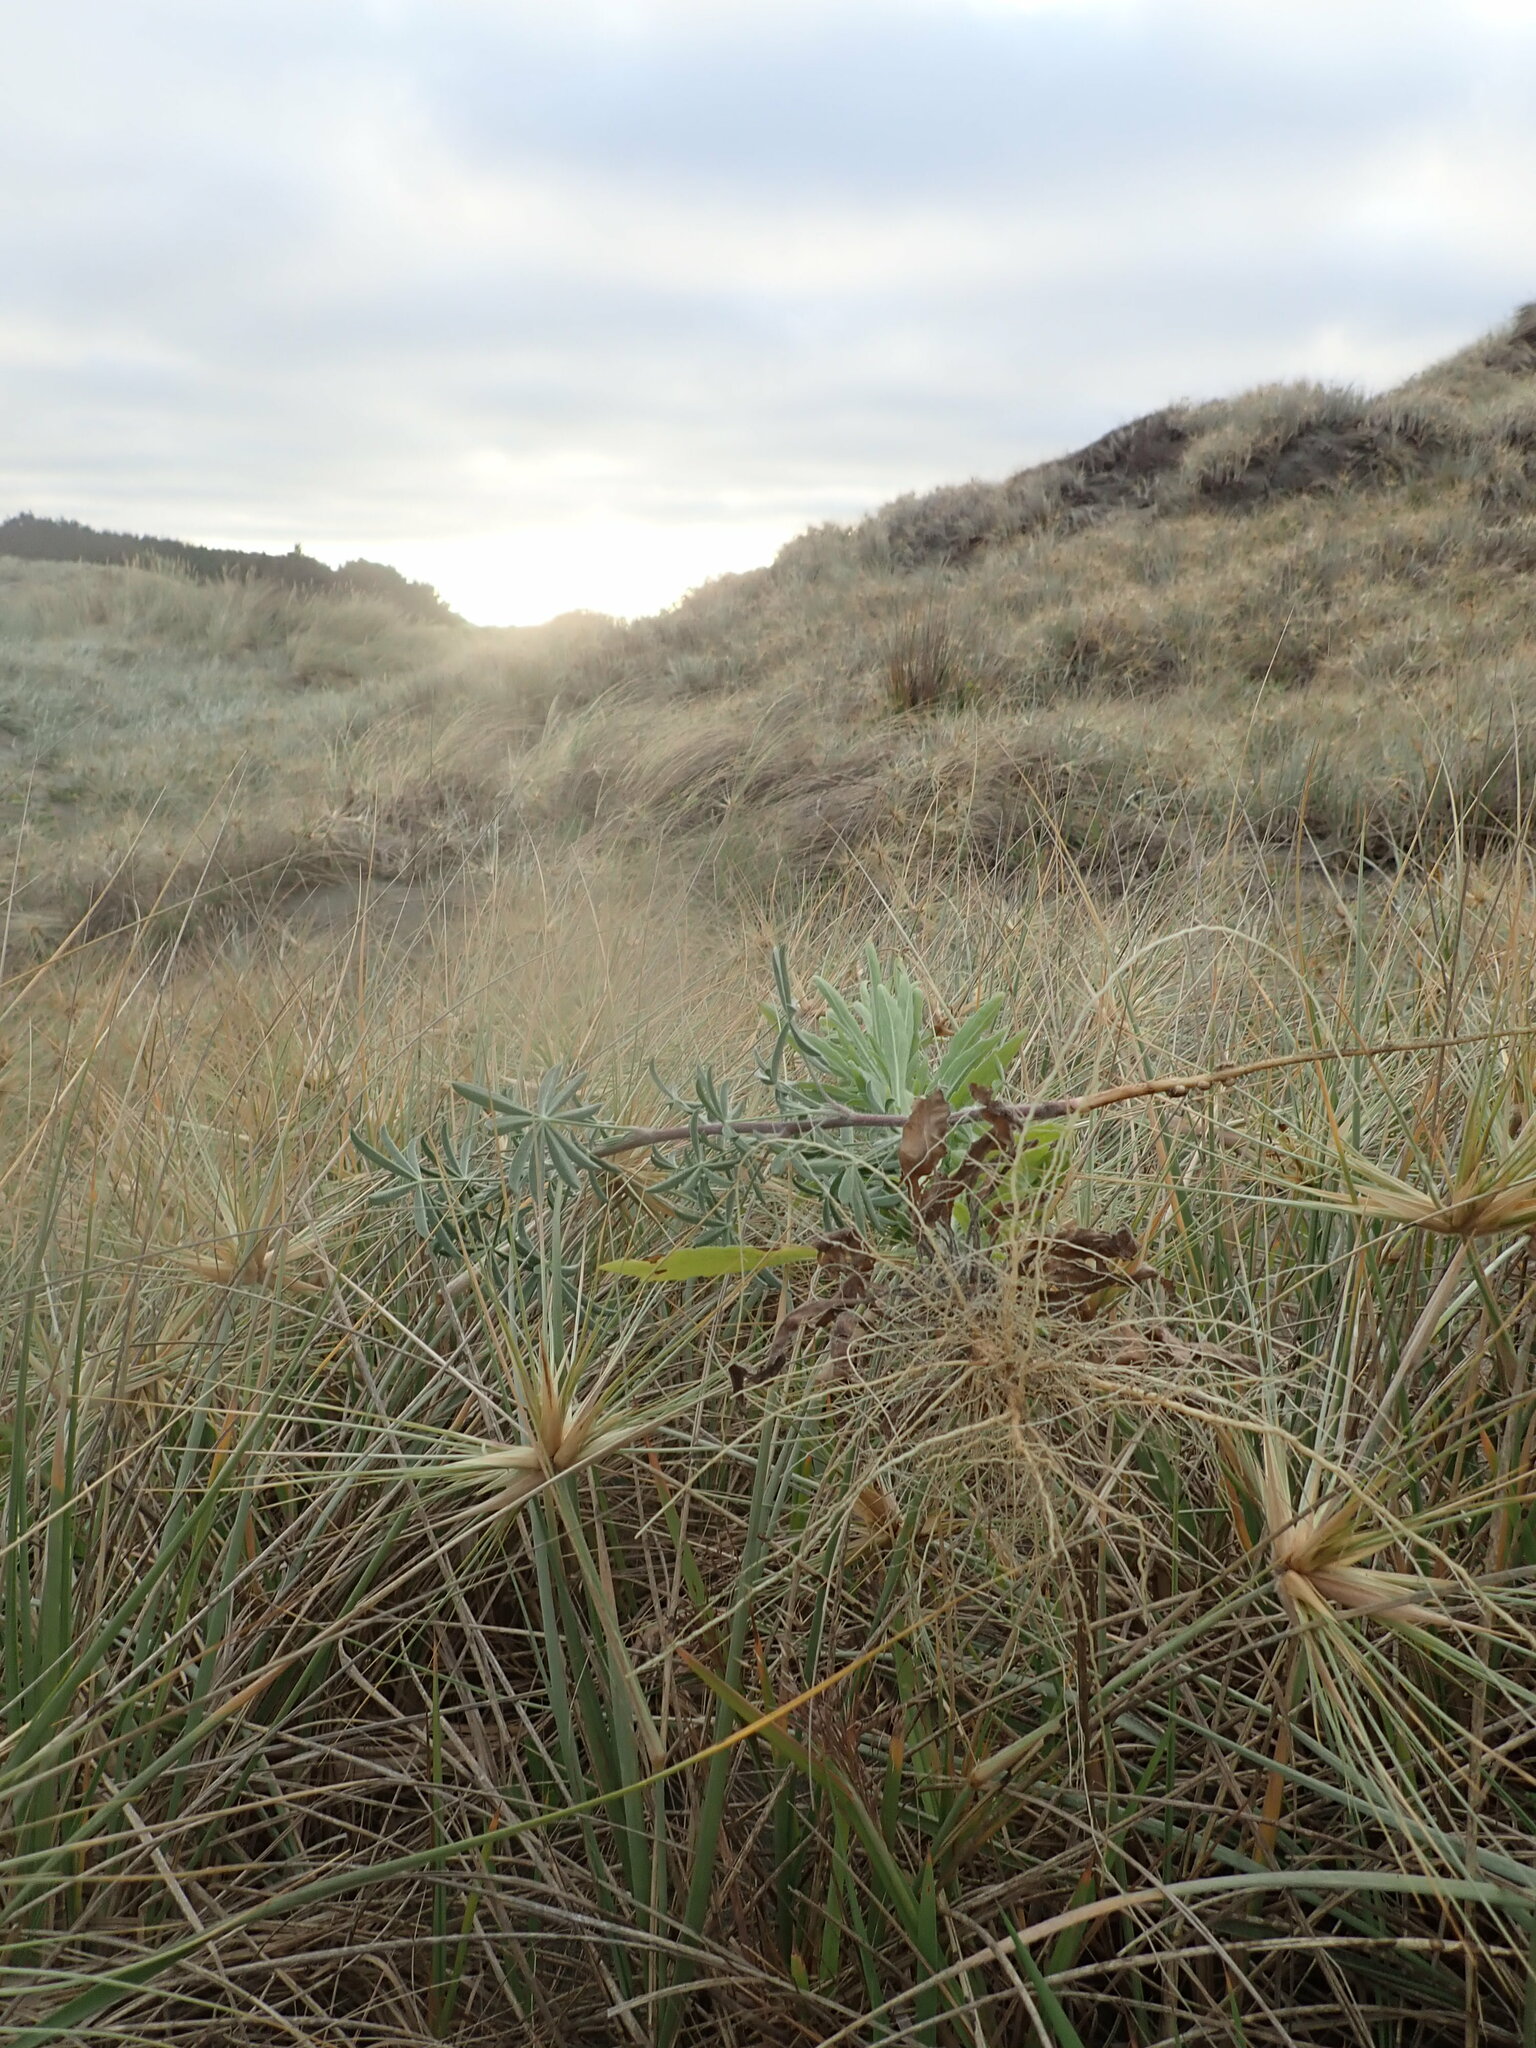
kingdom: Plantae
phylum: Tracheophyta
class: Magnoliopsida
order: Fabales
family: Fabaceae
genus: Lupinus
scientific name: Lupinus arboreus
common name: Yellow bush lupine
